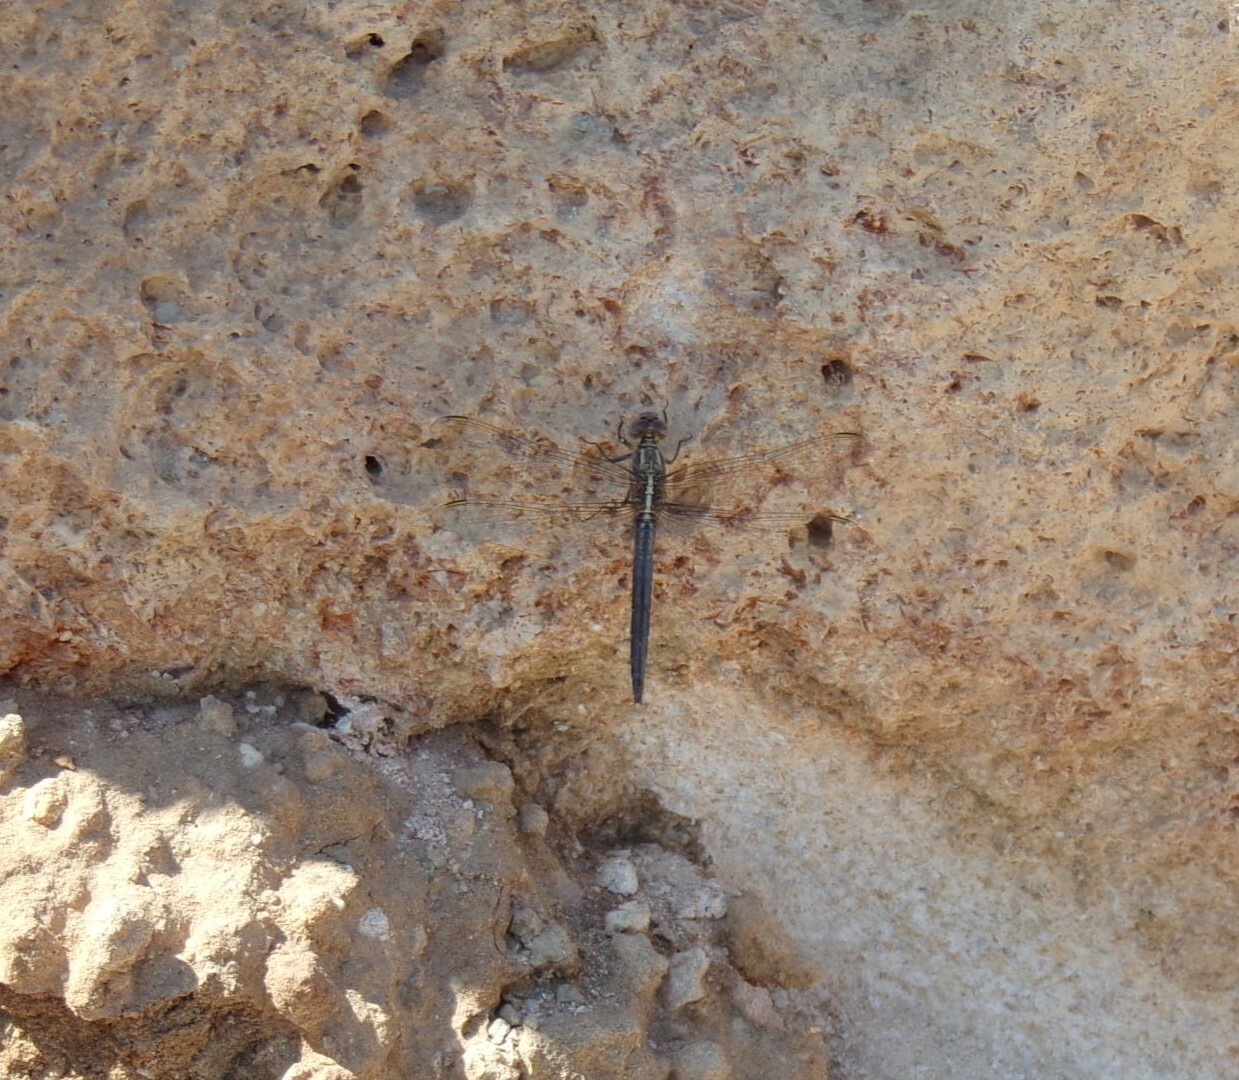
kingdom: Animalia
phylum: Arthropoda
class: Insecta
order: Odonata
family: Libellulidae
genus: Orthetrum
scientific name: Orthetrum chrysostigma
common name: Epaulet skimmer
